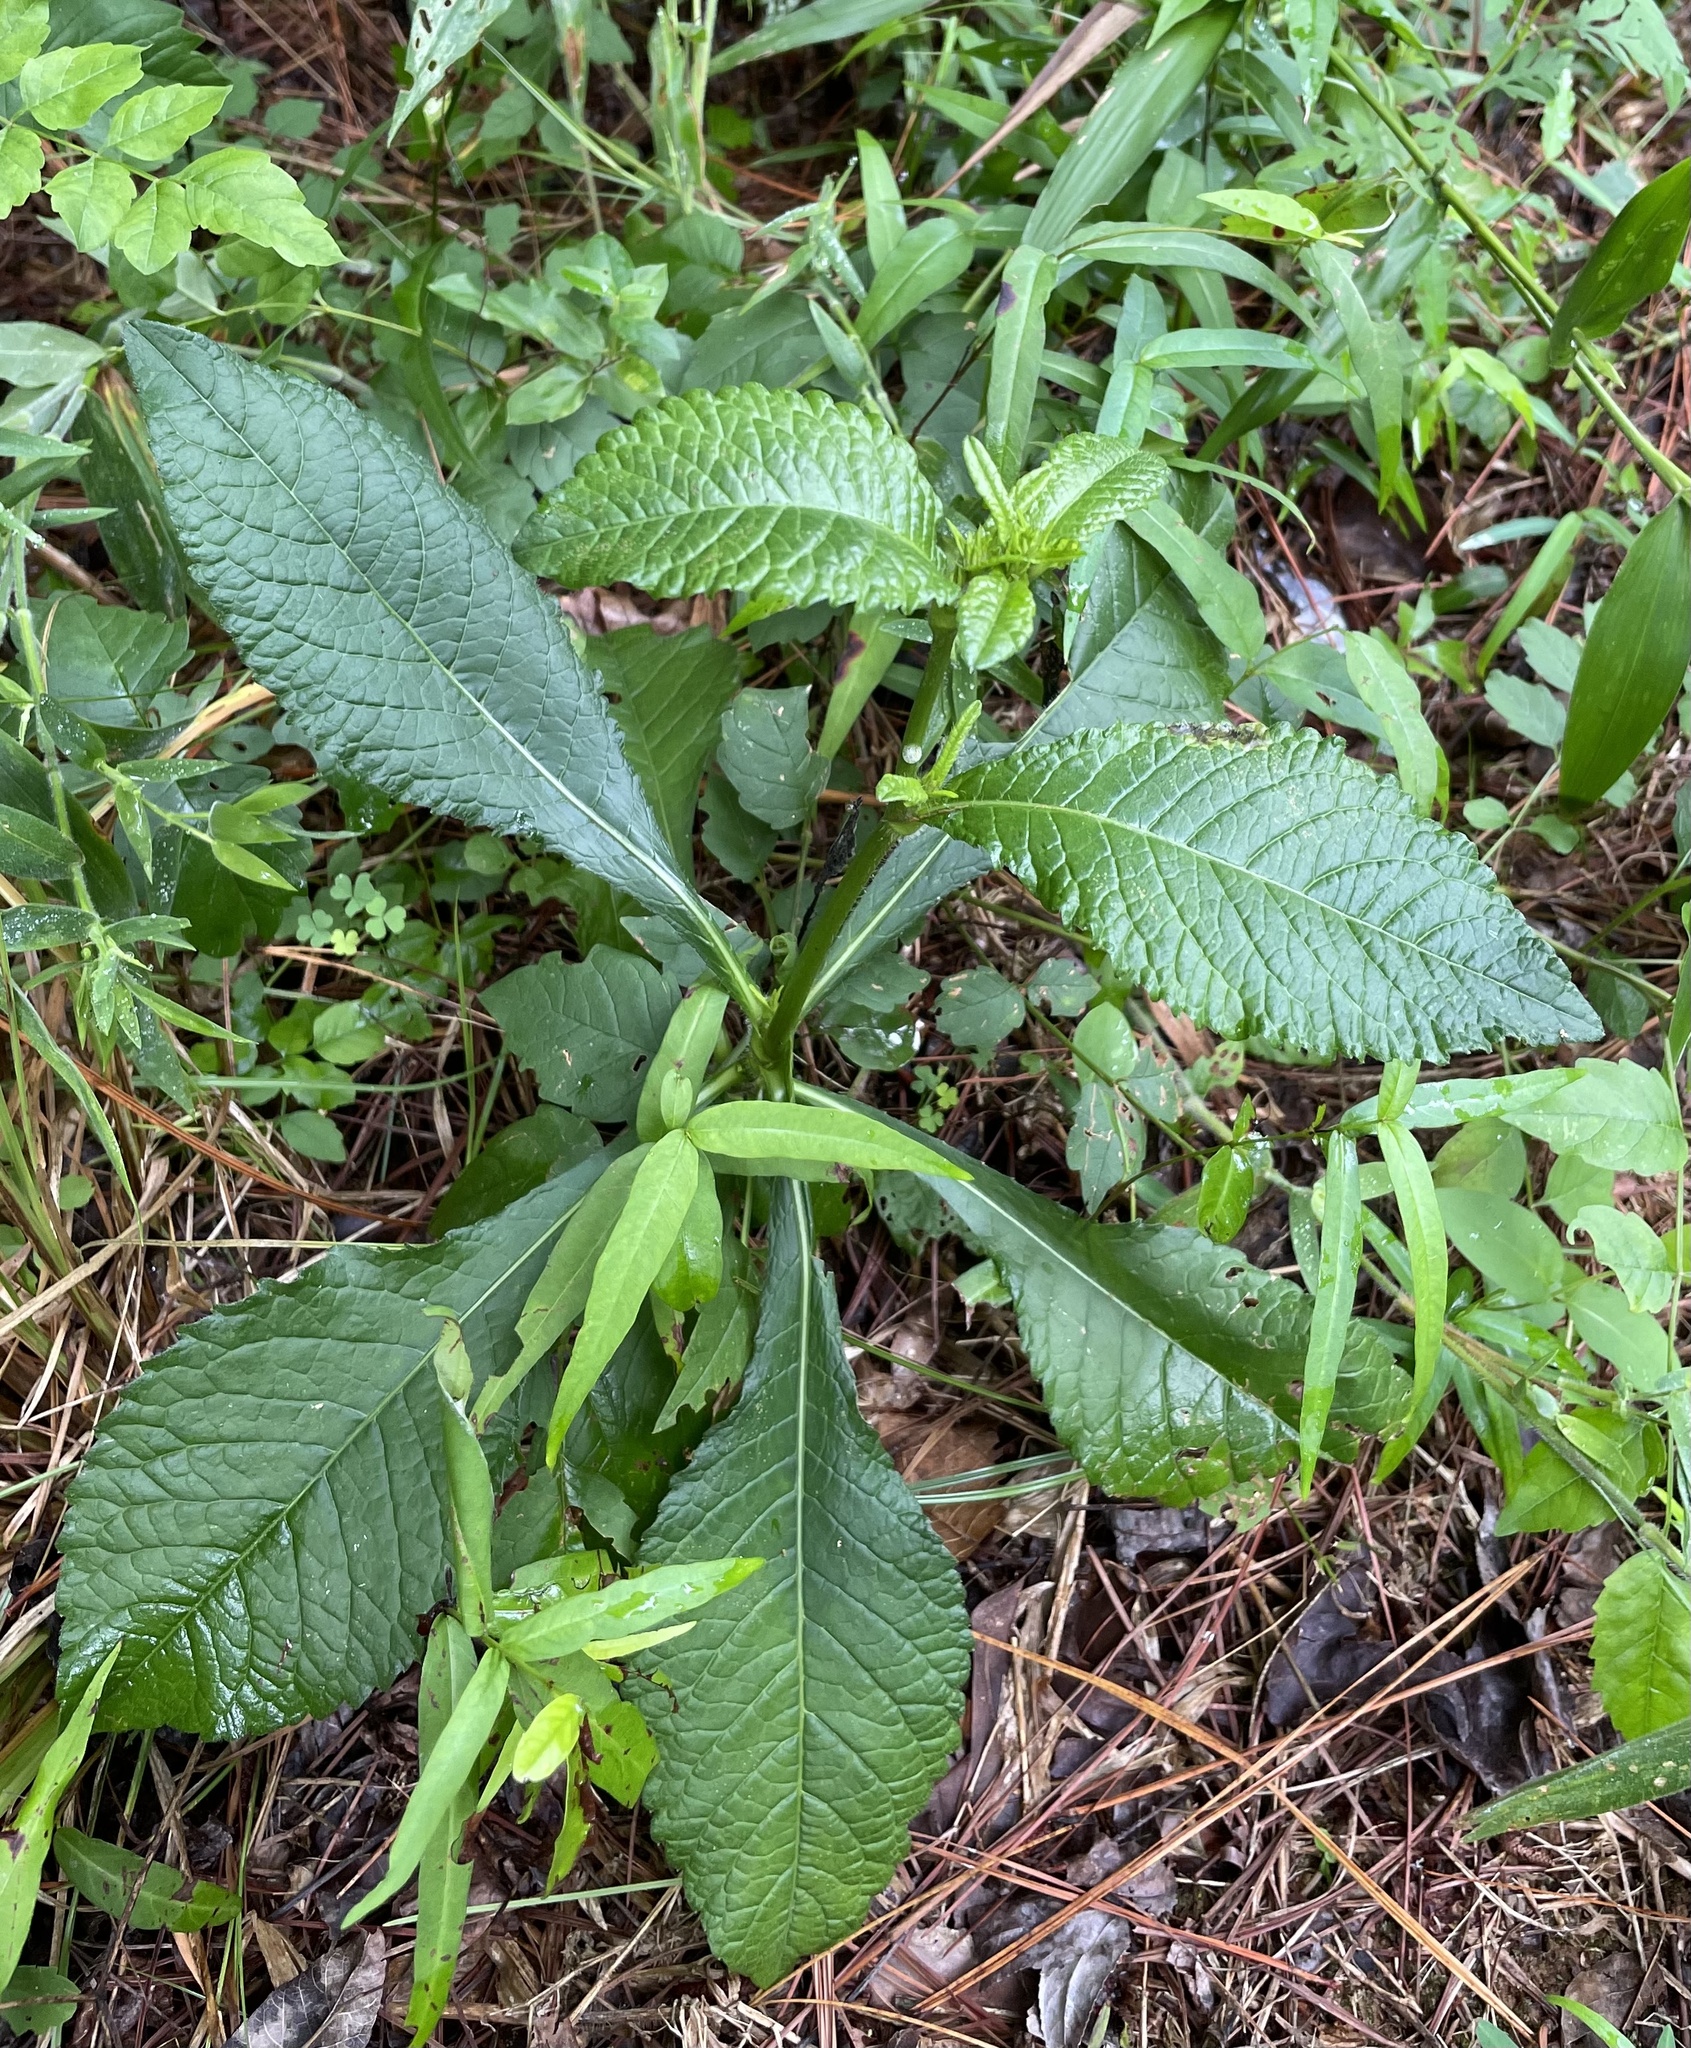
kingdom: Plantae
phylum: Tracheophyta
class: Magnoliopsida
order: Asterales
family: Asteraceae
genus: Elephantopus
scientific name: Elephantopus carolinianus
